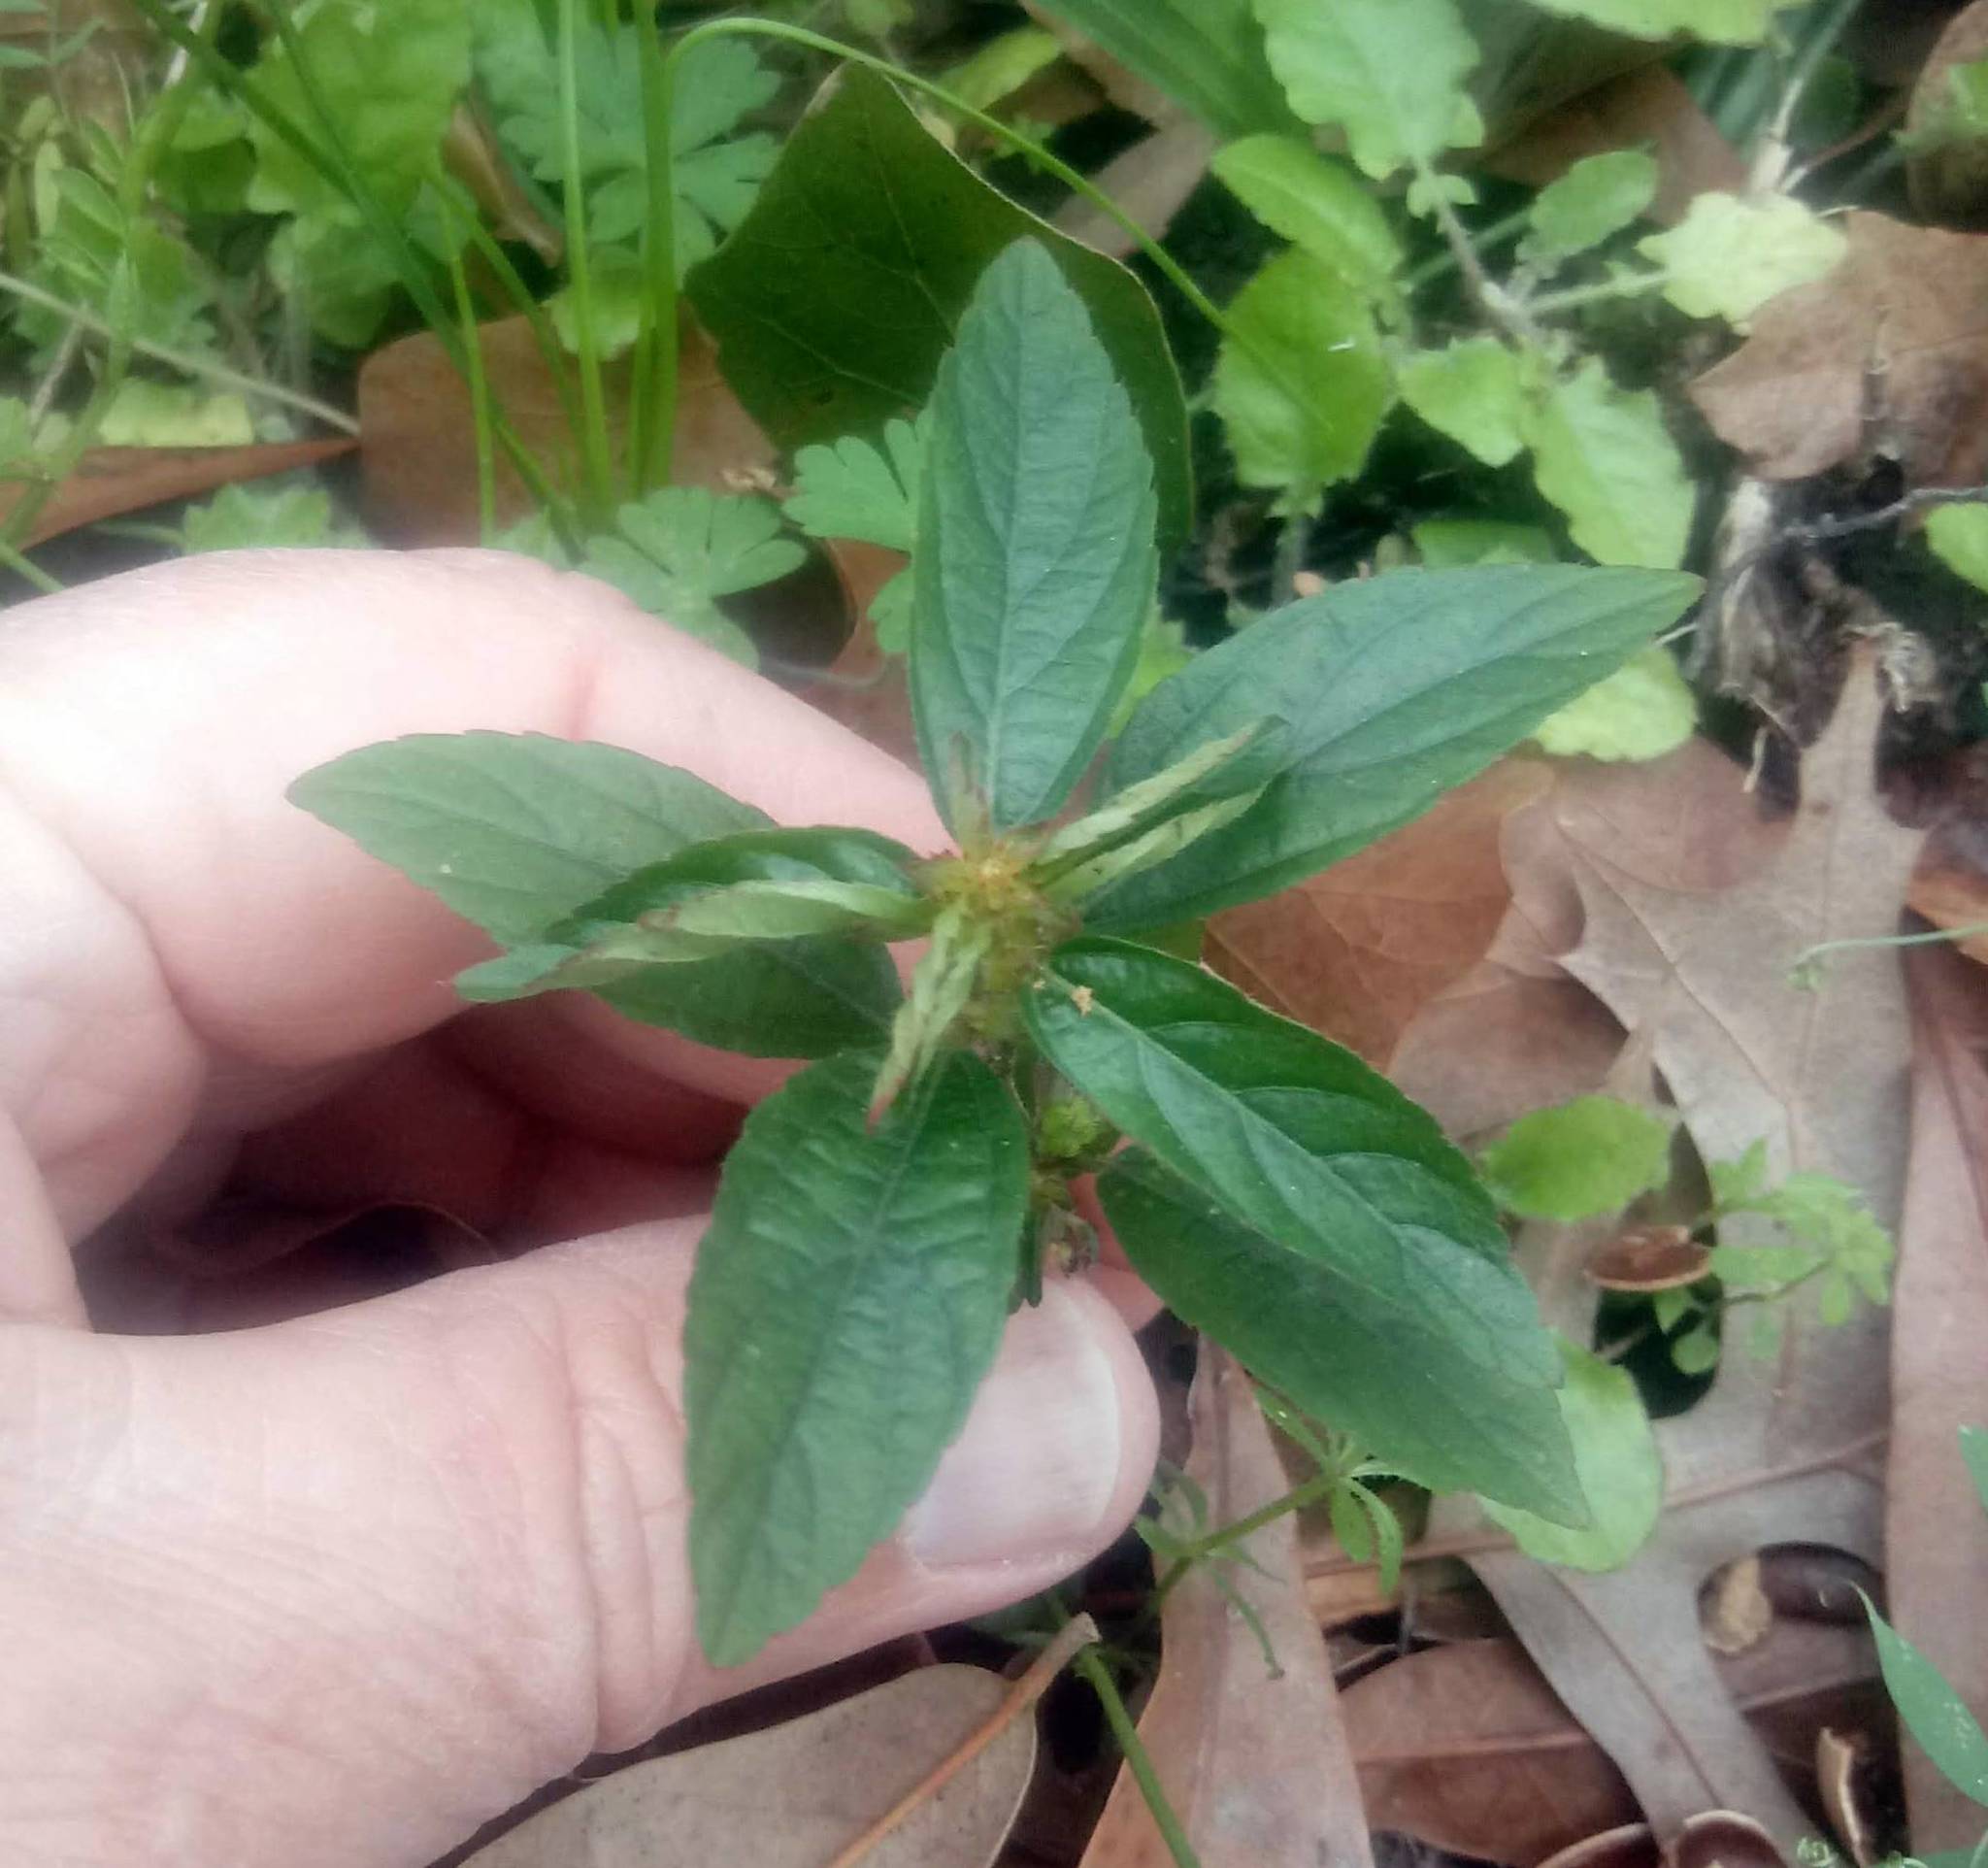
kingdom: Plantae
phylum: Tracheophyta
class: Magnoliopsida
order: Malpighiales
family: Euphorbiaceae
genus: Acalypha
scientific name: Acalypha gracilens
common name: Slender three-seeded mercury
